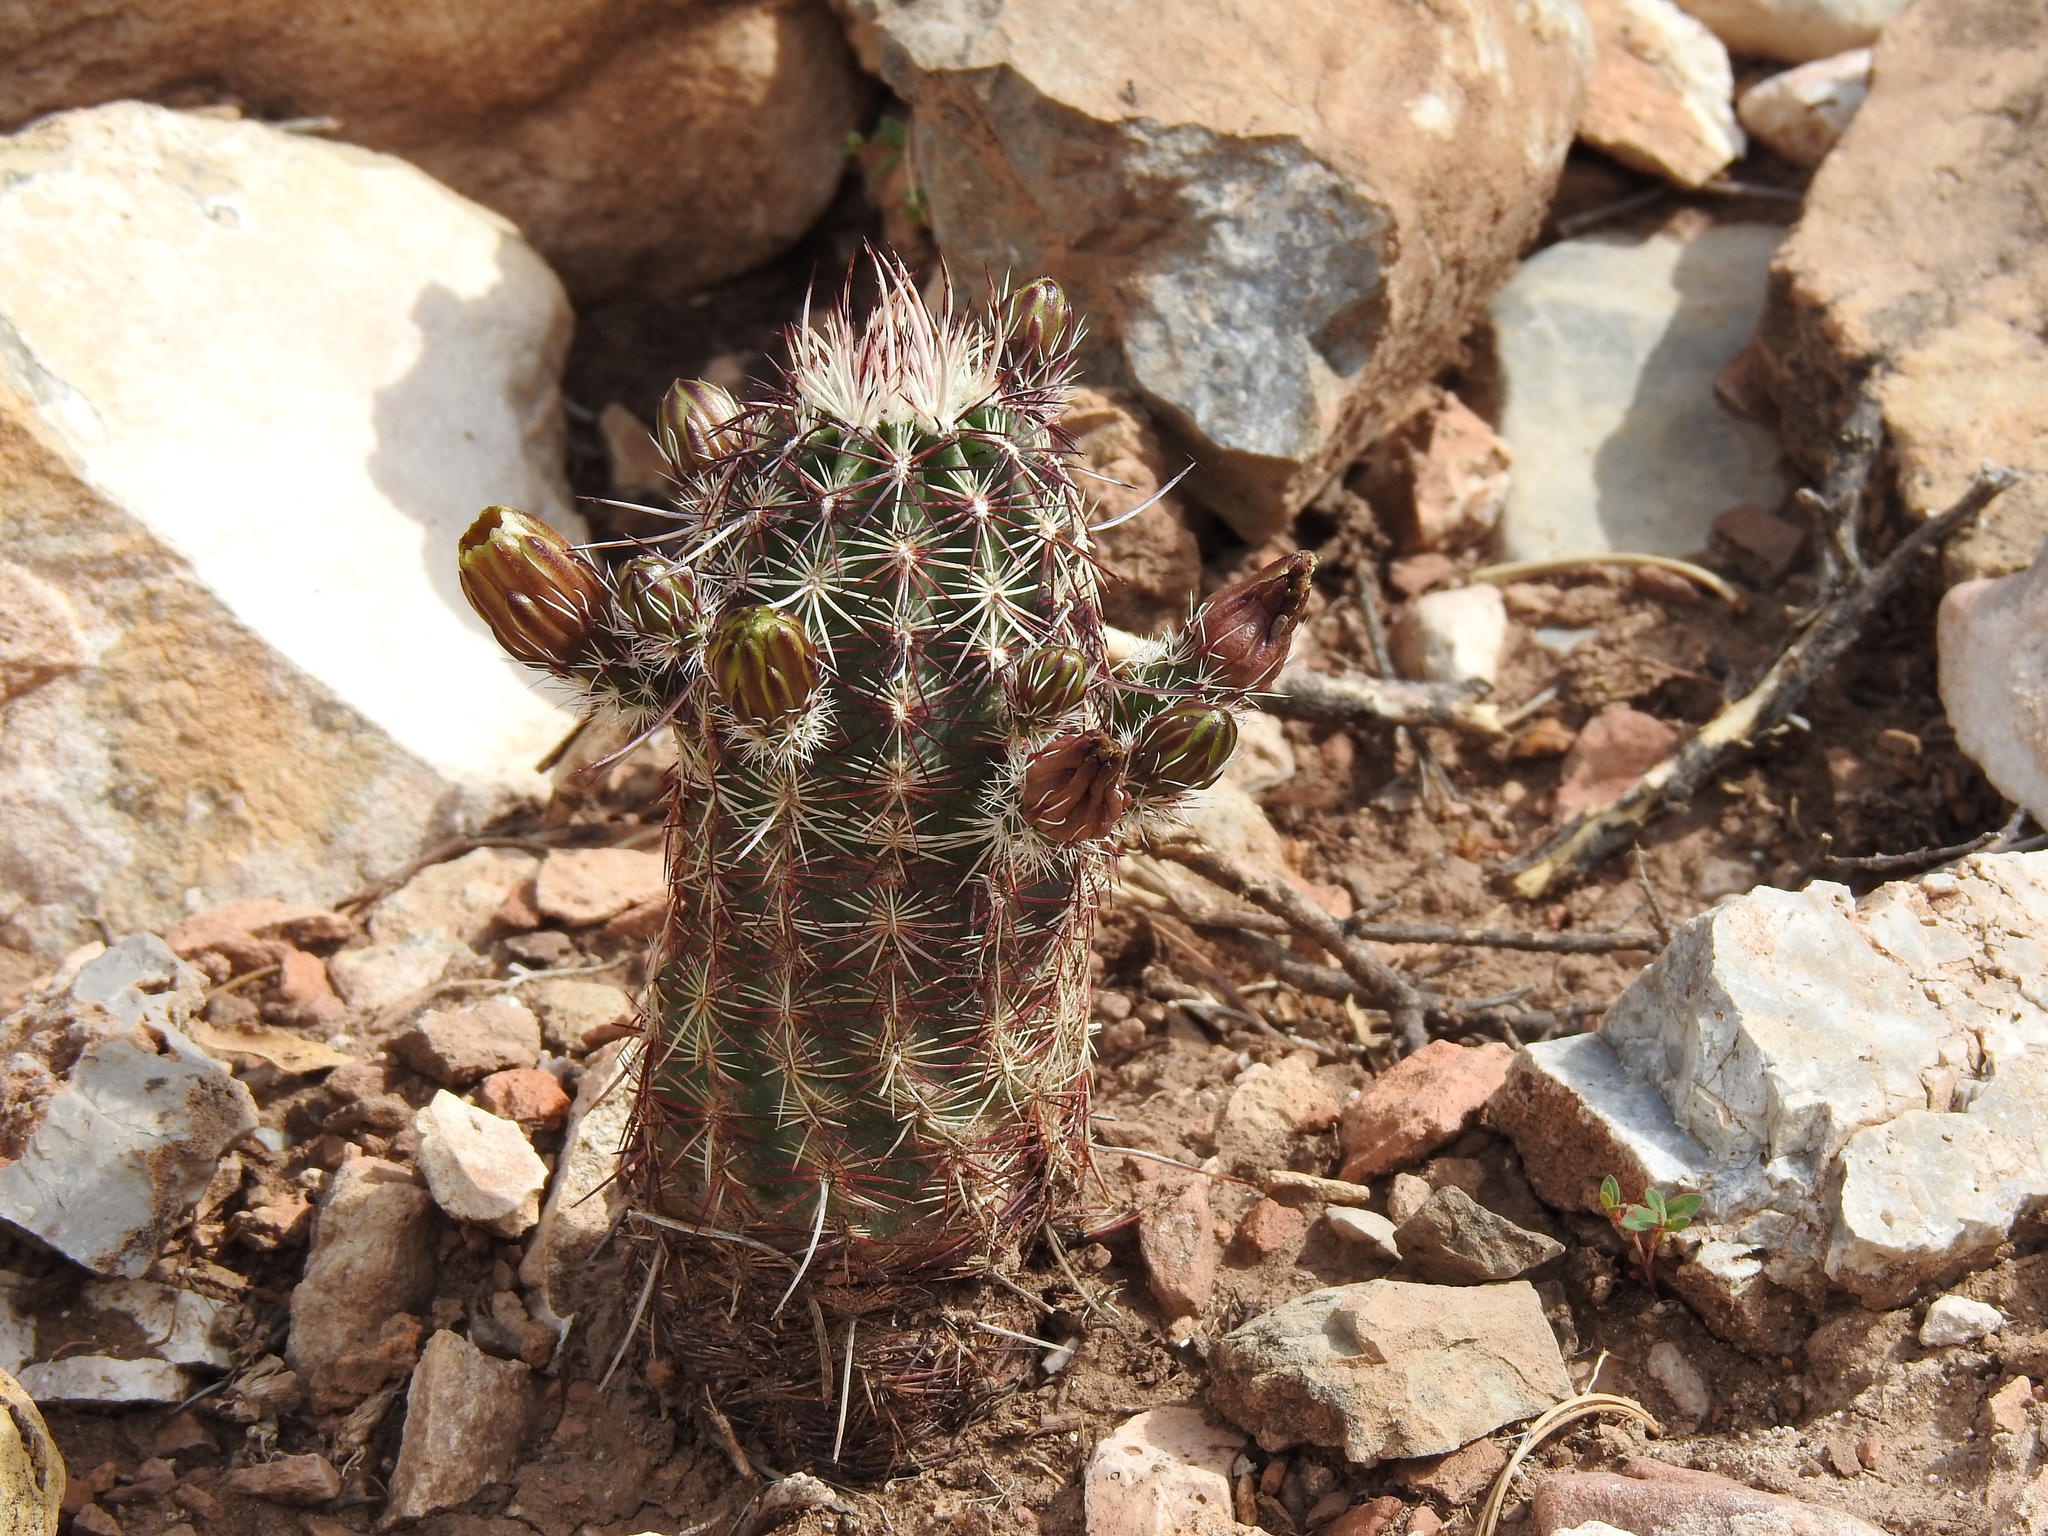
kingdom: Plantae
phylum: Tracheophyta
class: Magnoliopsida
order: Caryophyllales
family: Cactaceae
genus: Echinocereus
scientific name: Echinocereus viridiflorus
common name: Nylon hedgehog cactus
